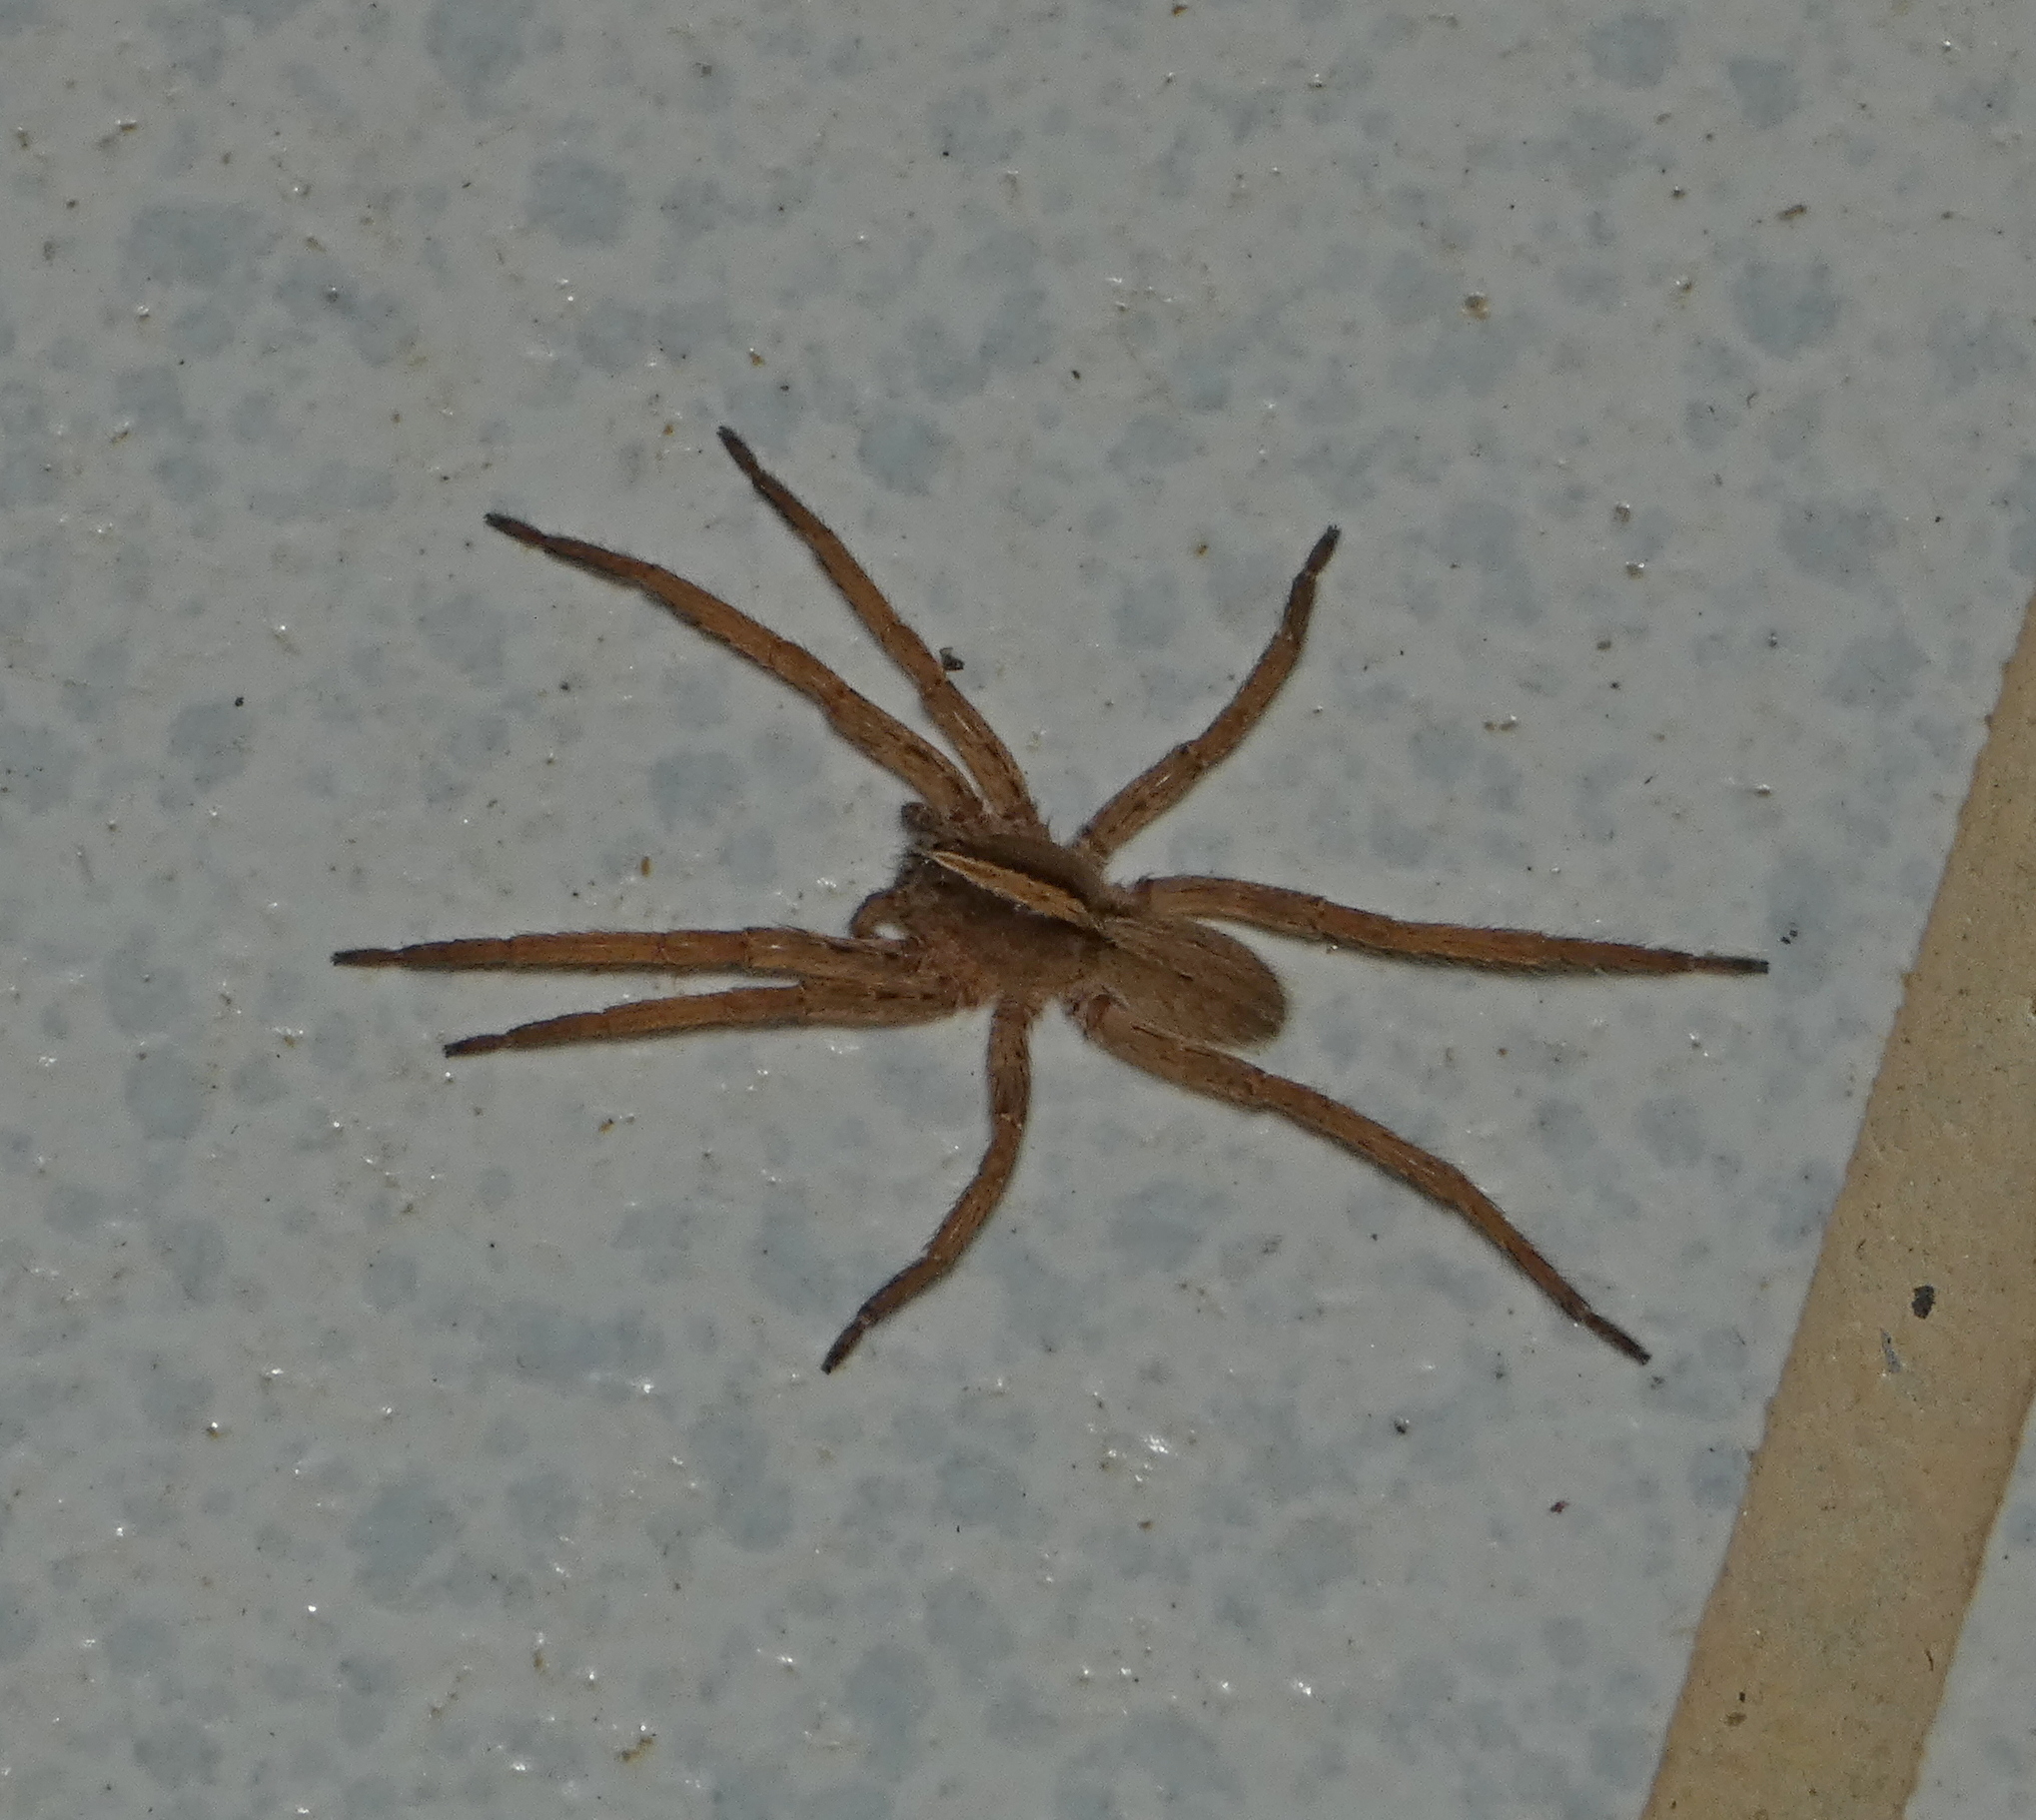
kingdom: Animalia
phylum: Arthropoda
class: Arachnida
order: Araneae
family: Ctenidae
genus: Parabatinga
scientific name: Parabatinga brevipes
